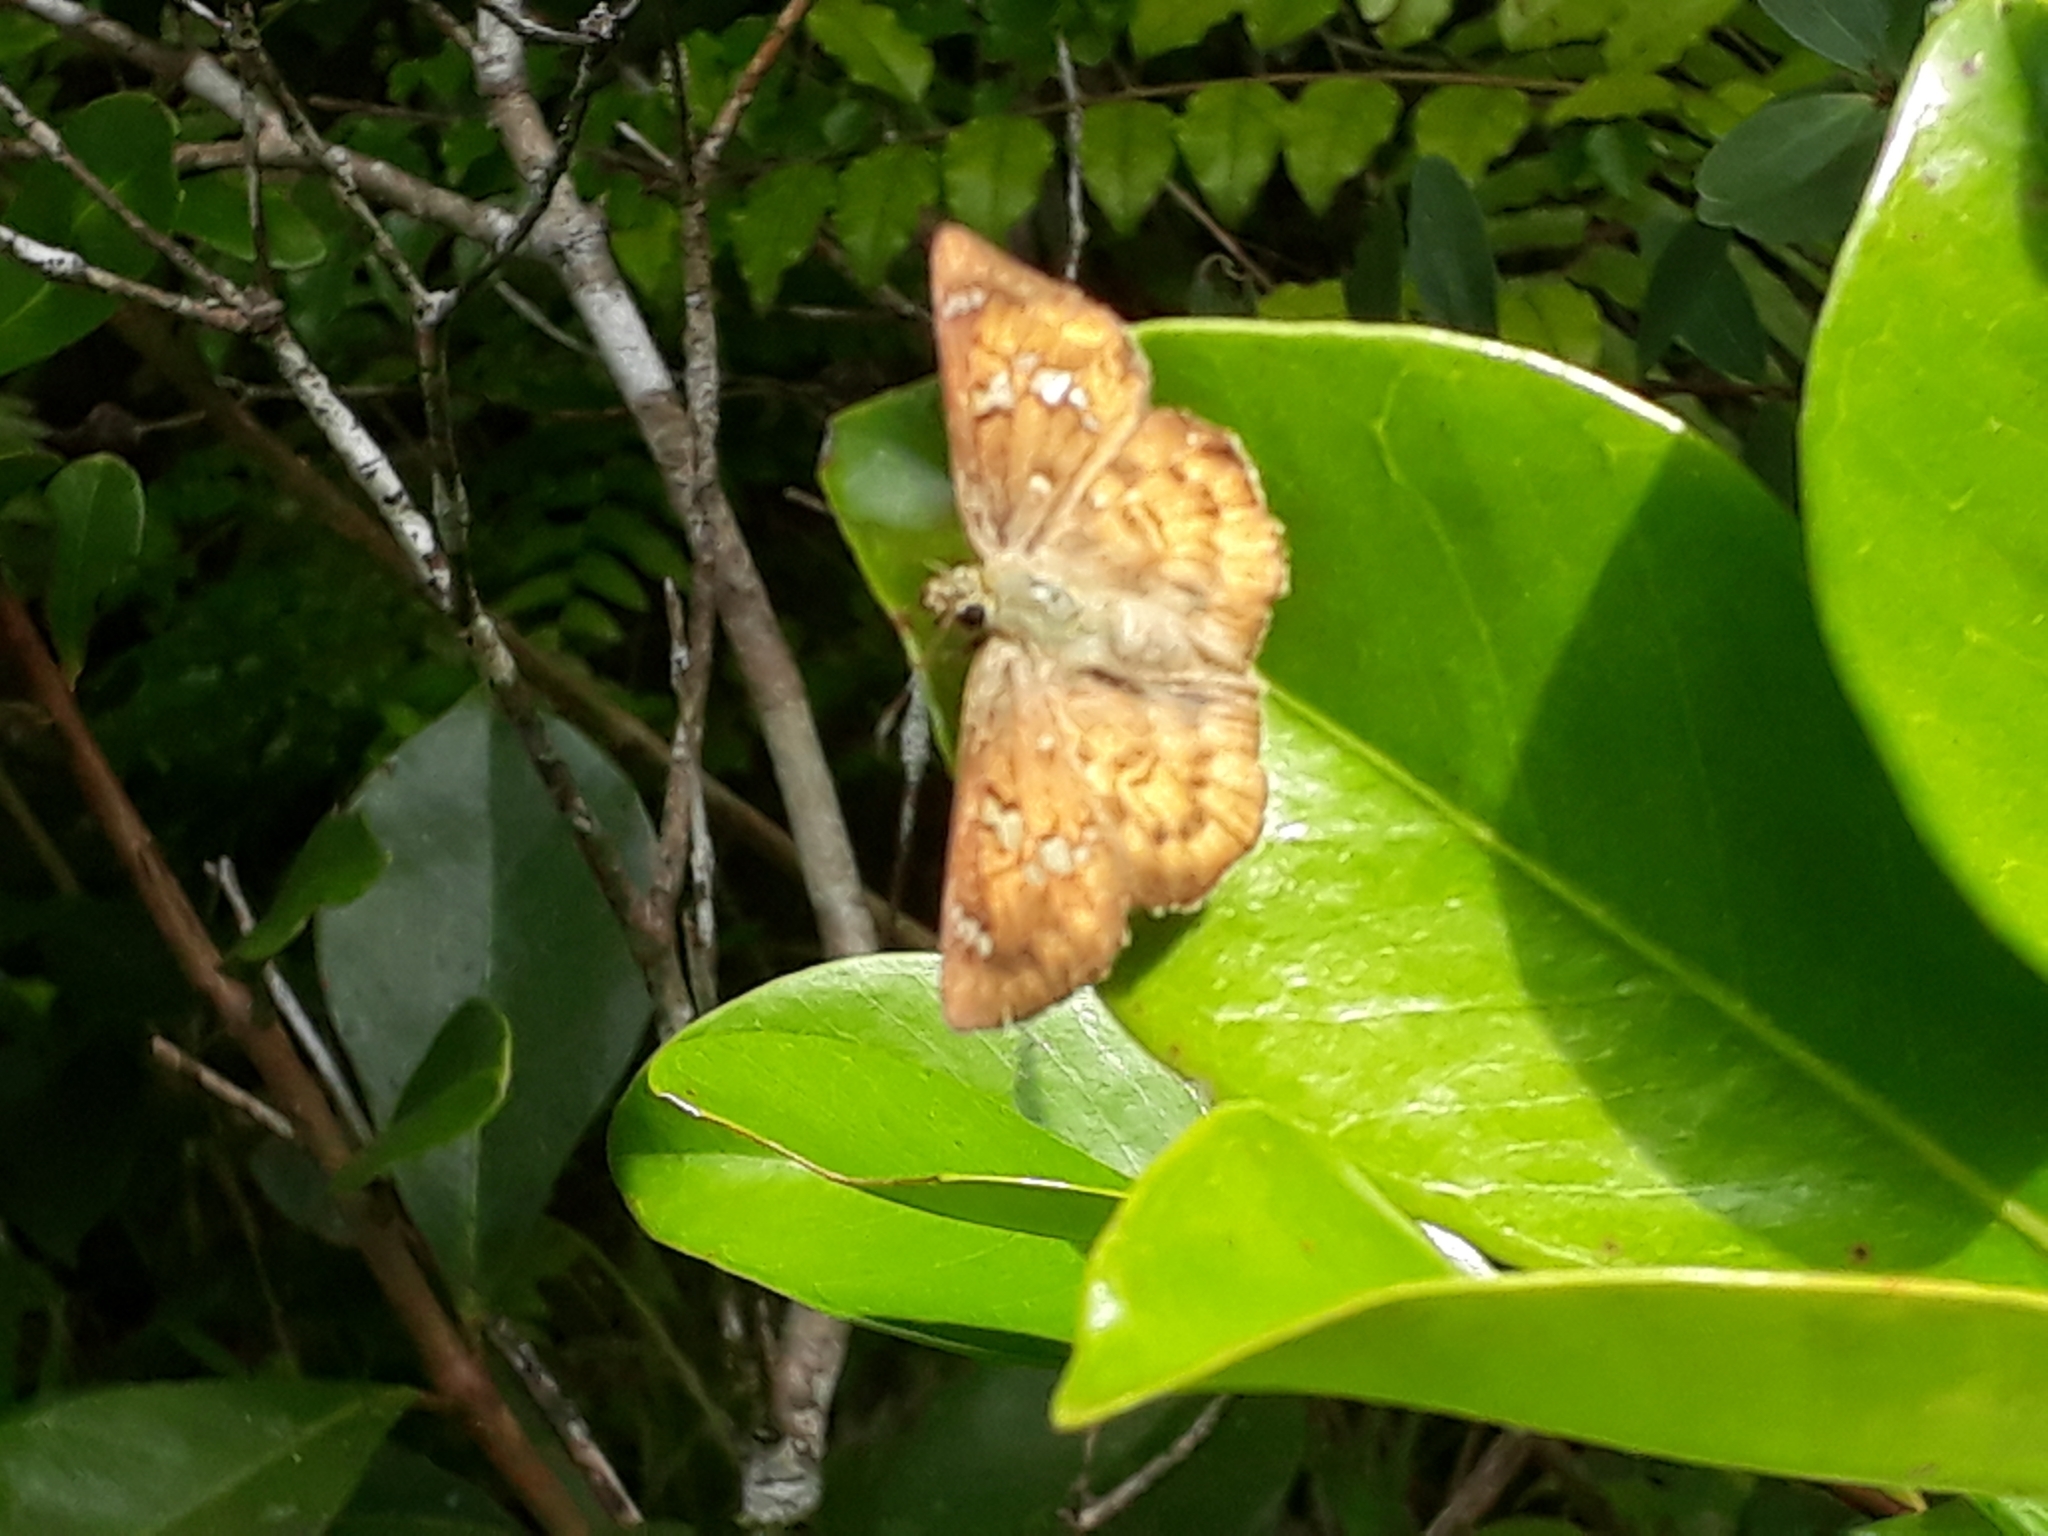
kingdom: Animalia
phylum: Arthropoda
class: Insecta
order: Lepidoptera
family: Hesperiidae
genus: Eagris
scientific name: Eagris sabadius
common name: Orange flat
